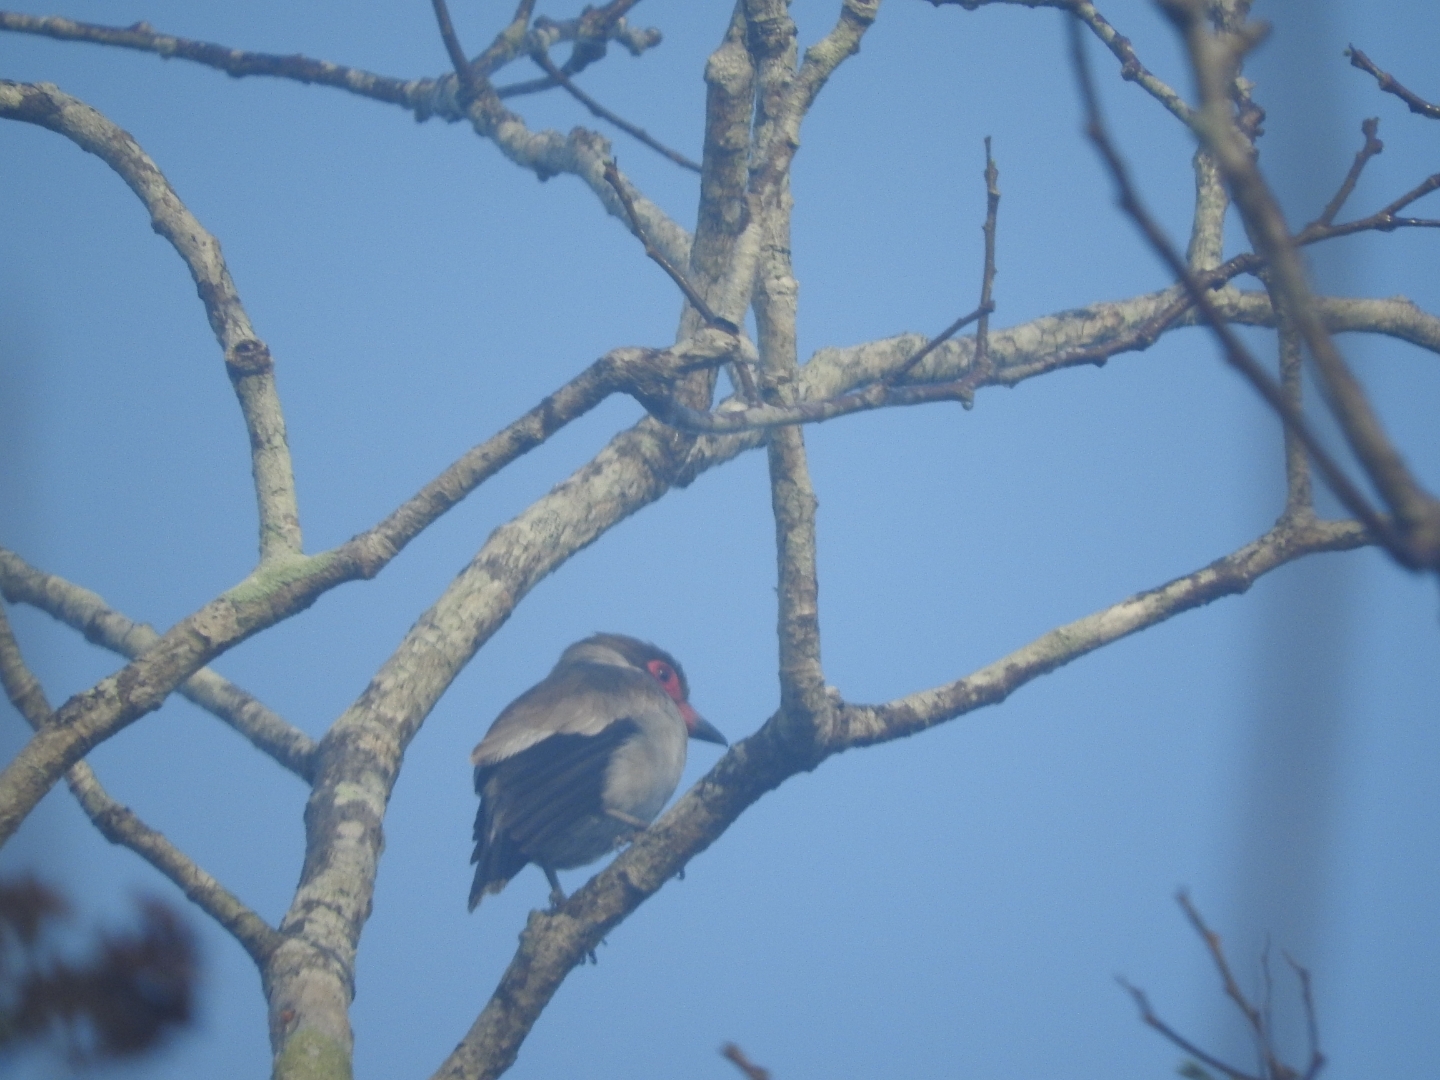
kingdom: Animalia
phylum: Chordata
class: Aves
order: Passeriformes
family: Cotingidae
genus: Tityra
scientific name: Tityra semifasciata
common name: Masked tityra
